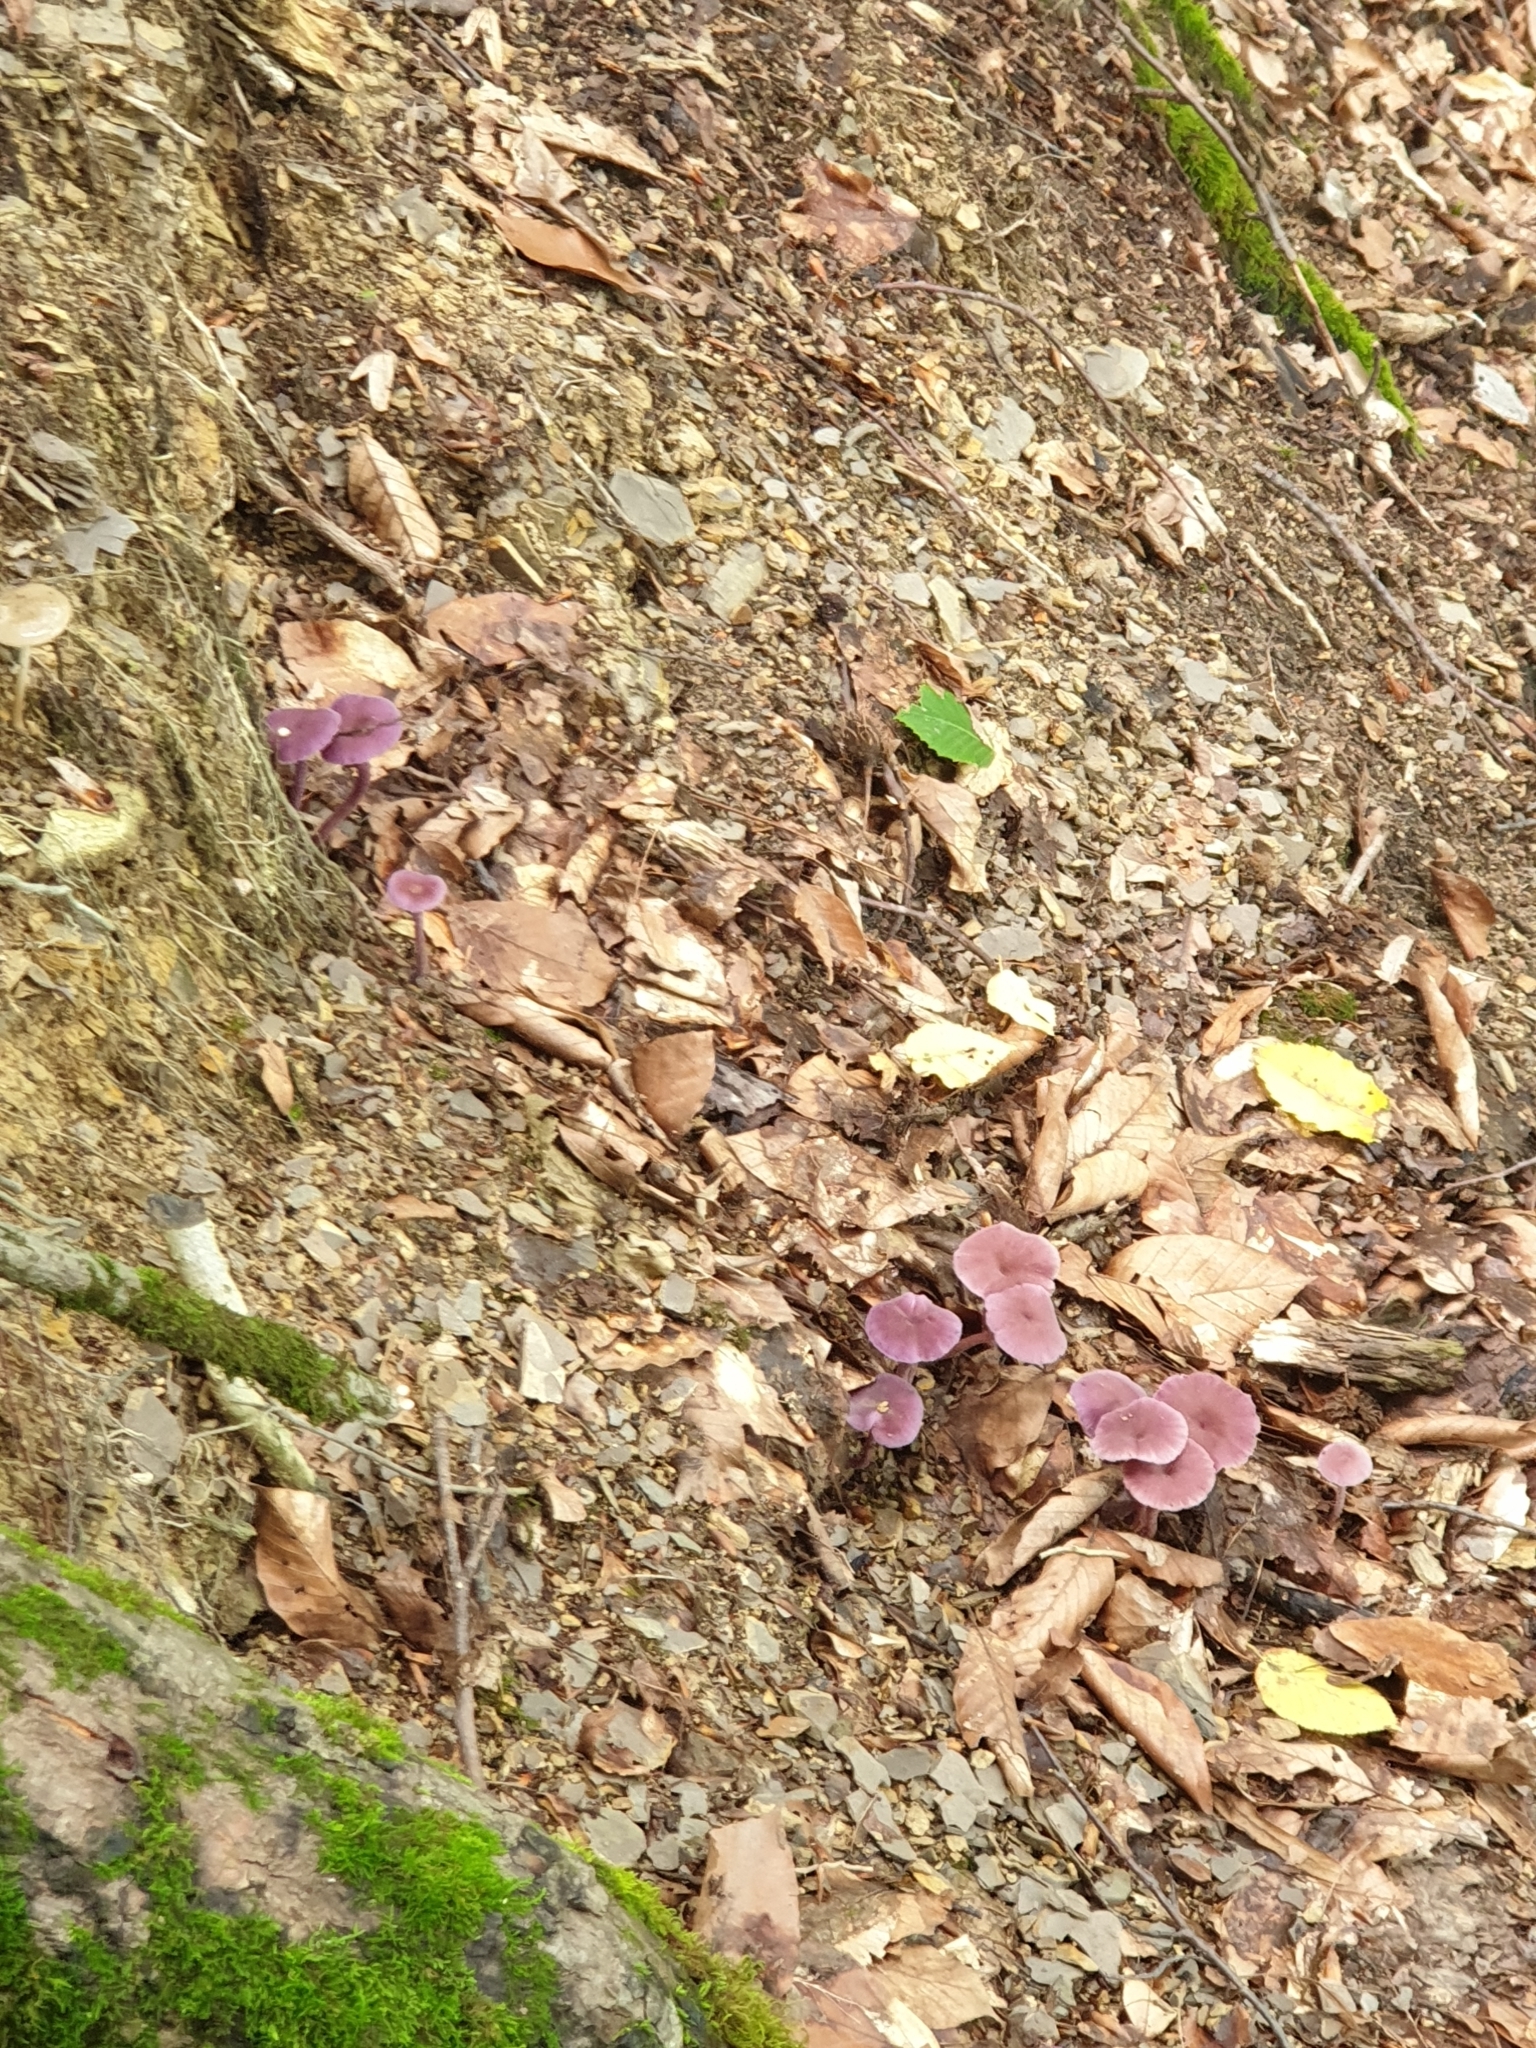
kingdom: Fungi
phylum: Basidiomycota
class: Agaricomycetes
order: Agaricales
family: Hydnangiaceae
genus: Laccaria
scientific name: Laccaria amethystina
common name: Amethyst deceiver
